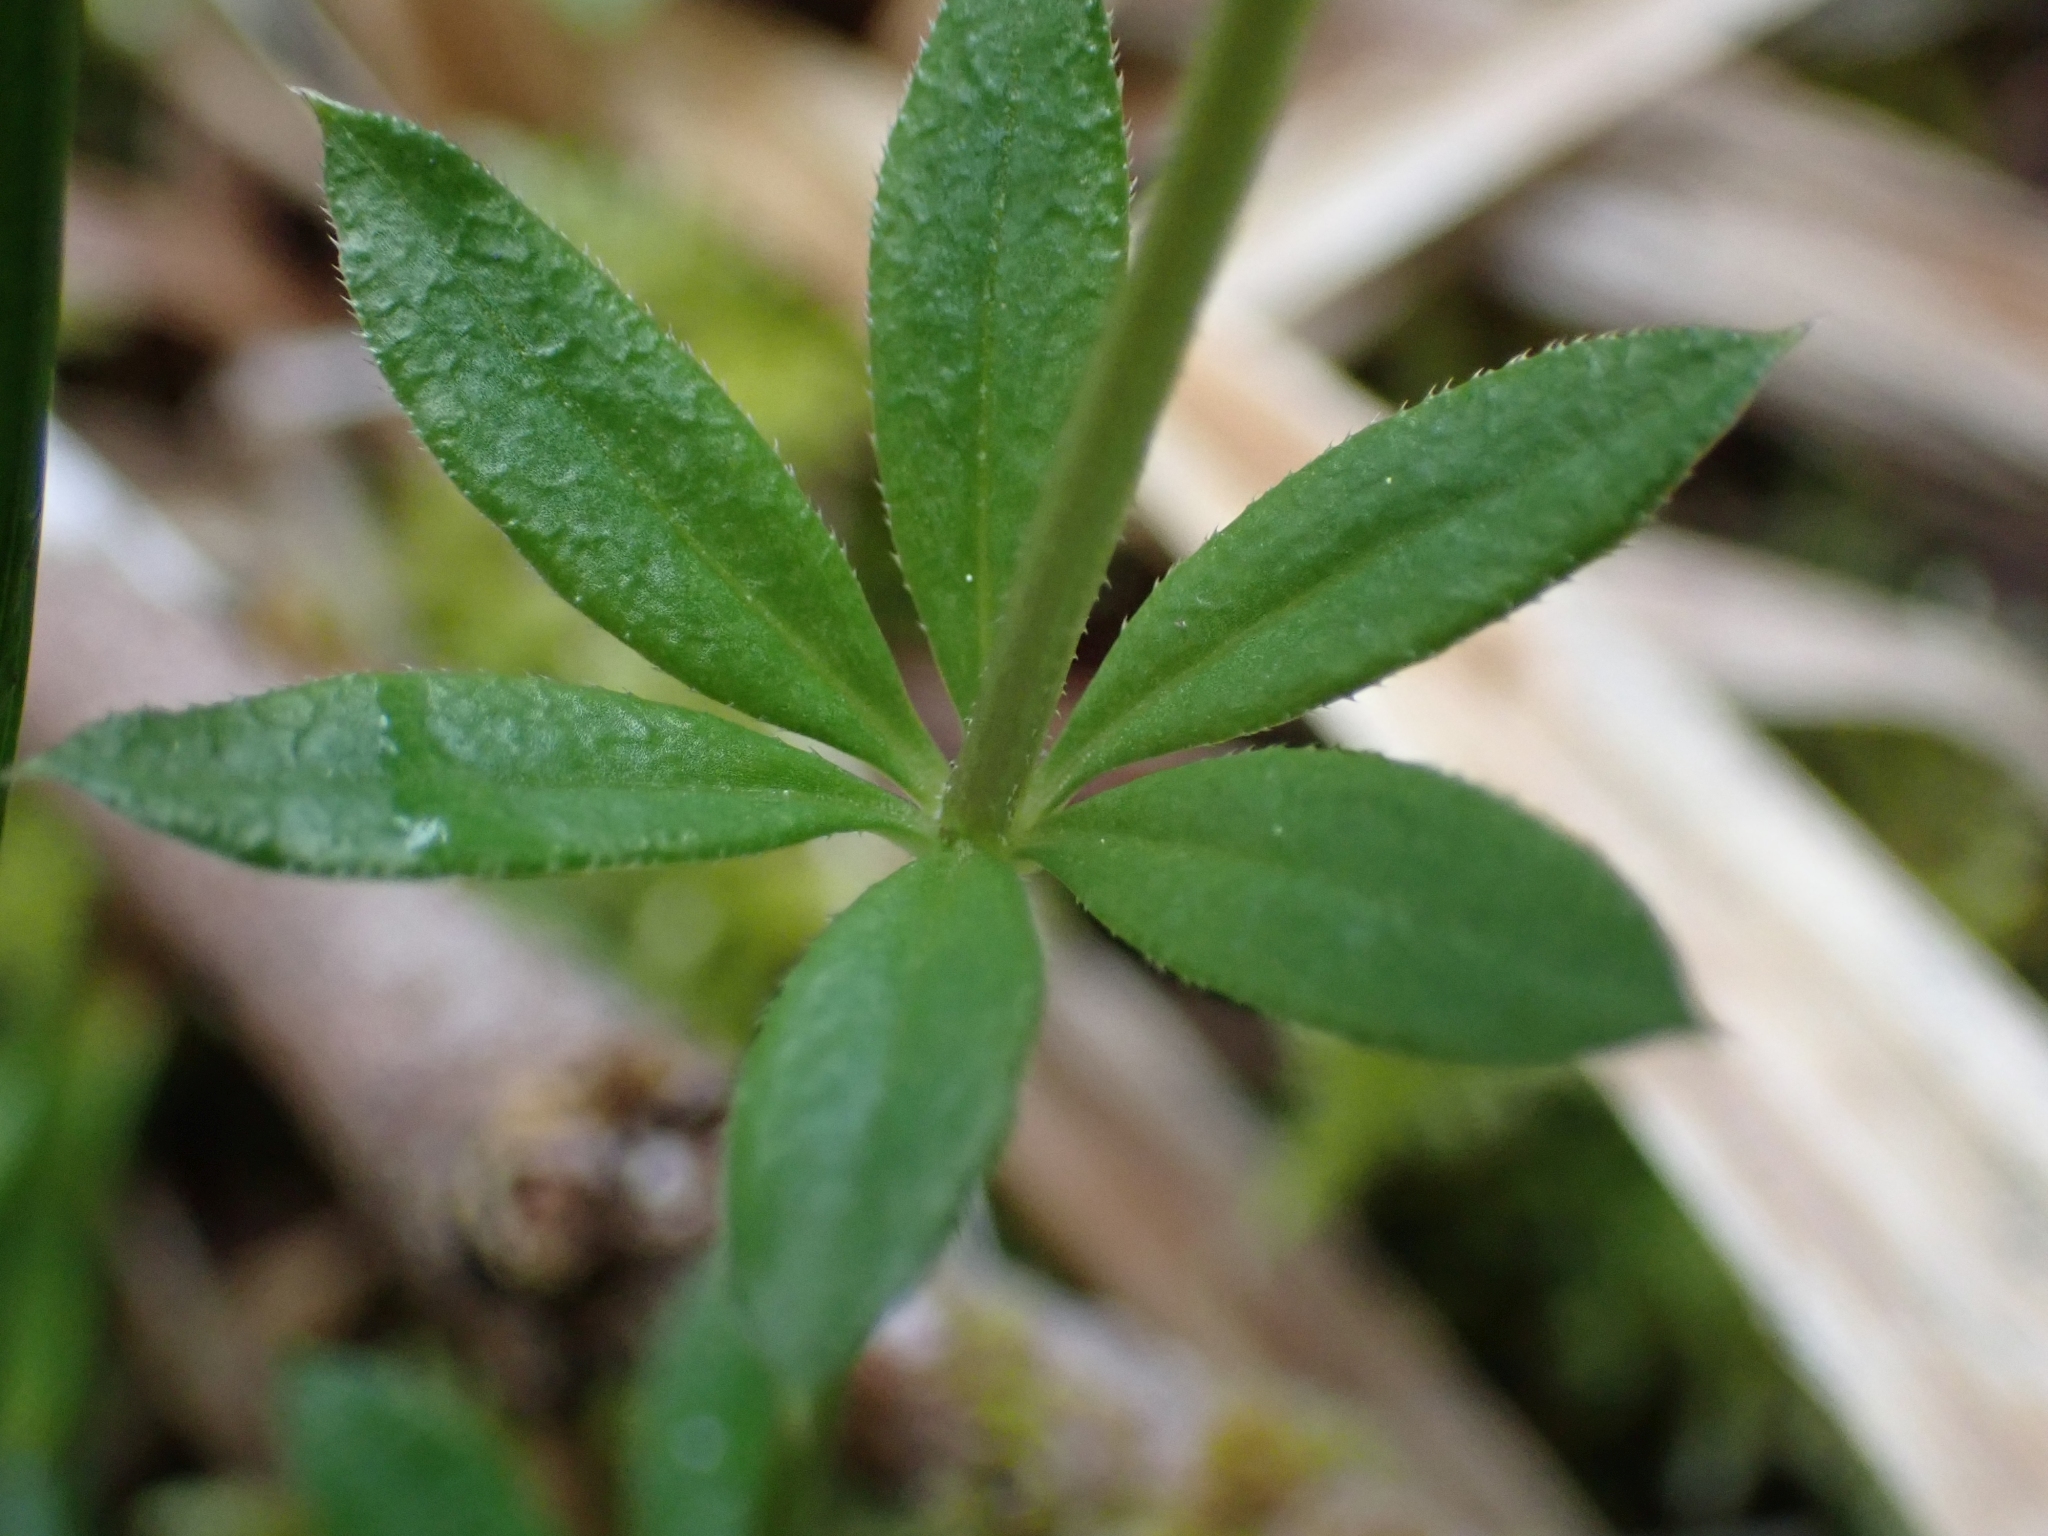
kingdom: Plantae
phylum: Tracheophyta
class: Magnoliopsida
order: Gentianales
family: Rubiaceae
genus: Galium
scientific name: Galium triflorum
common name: Fragrant bedstraw
